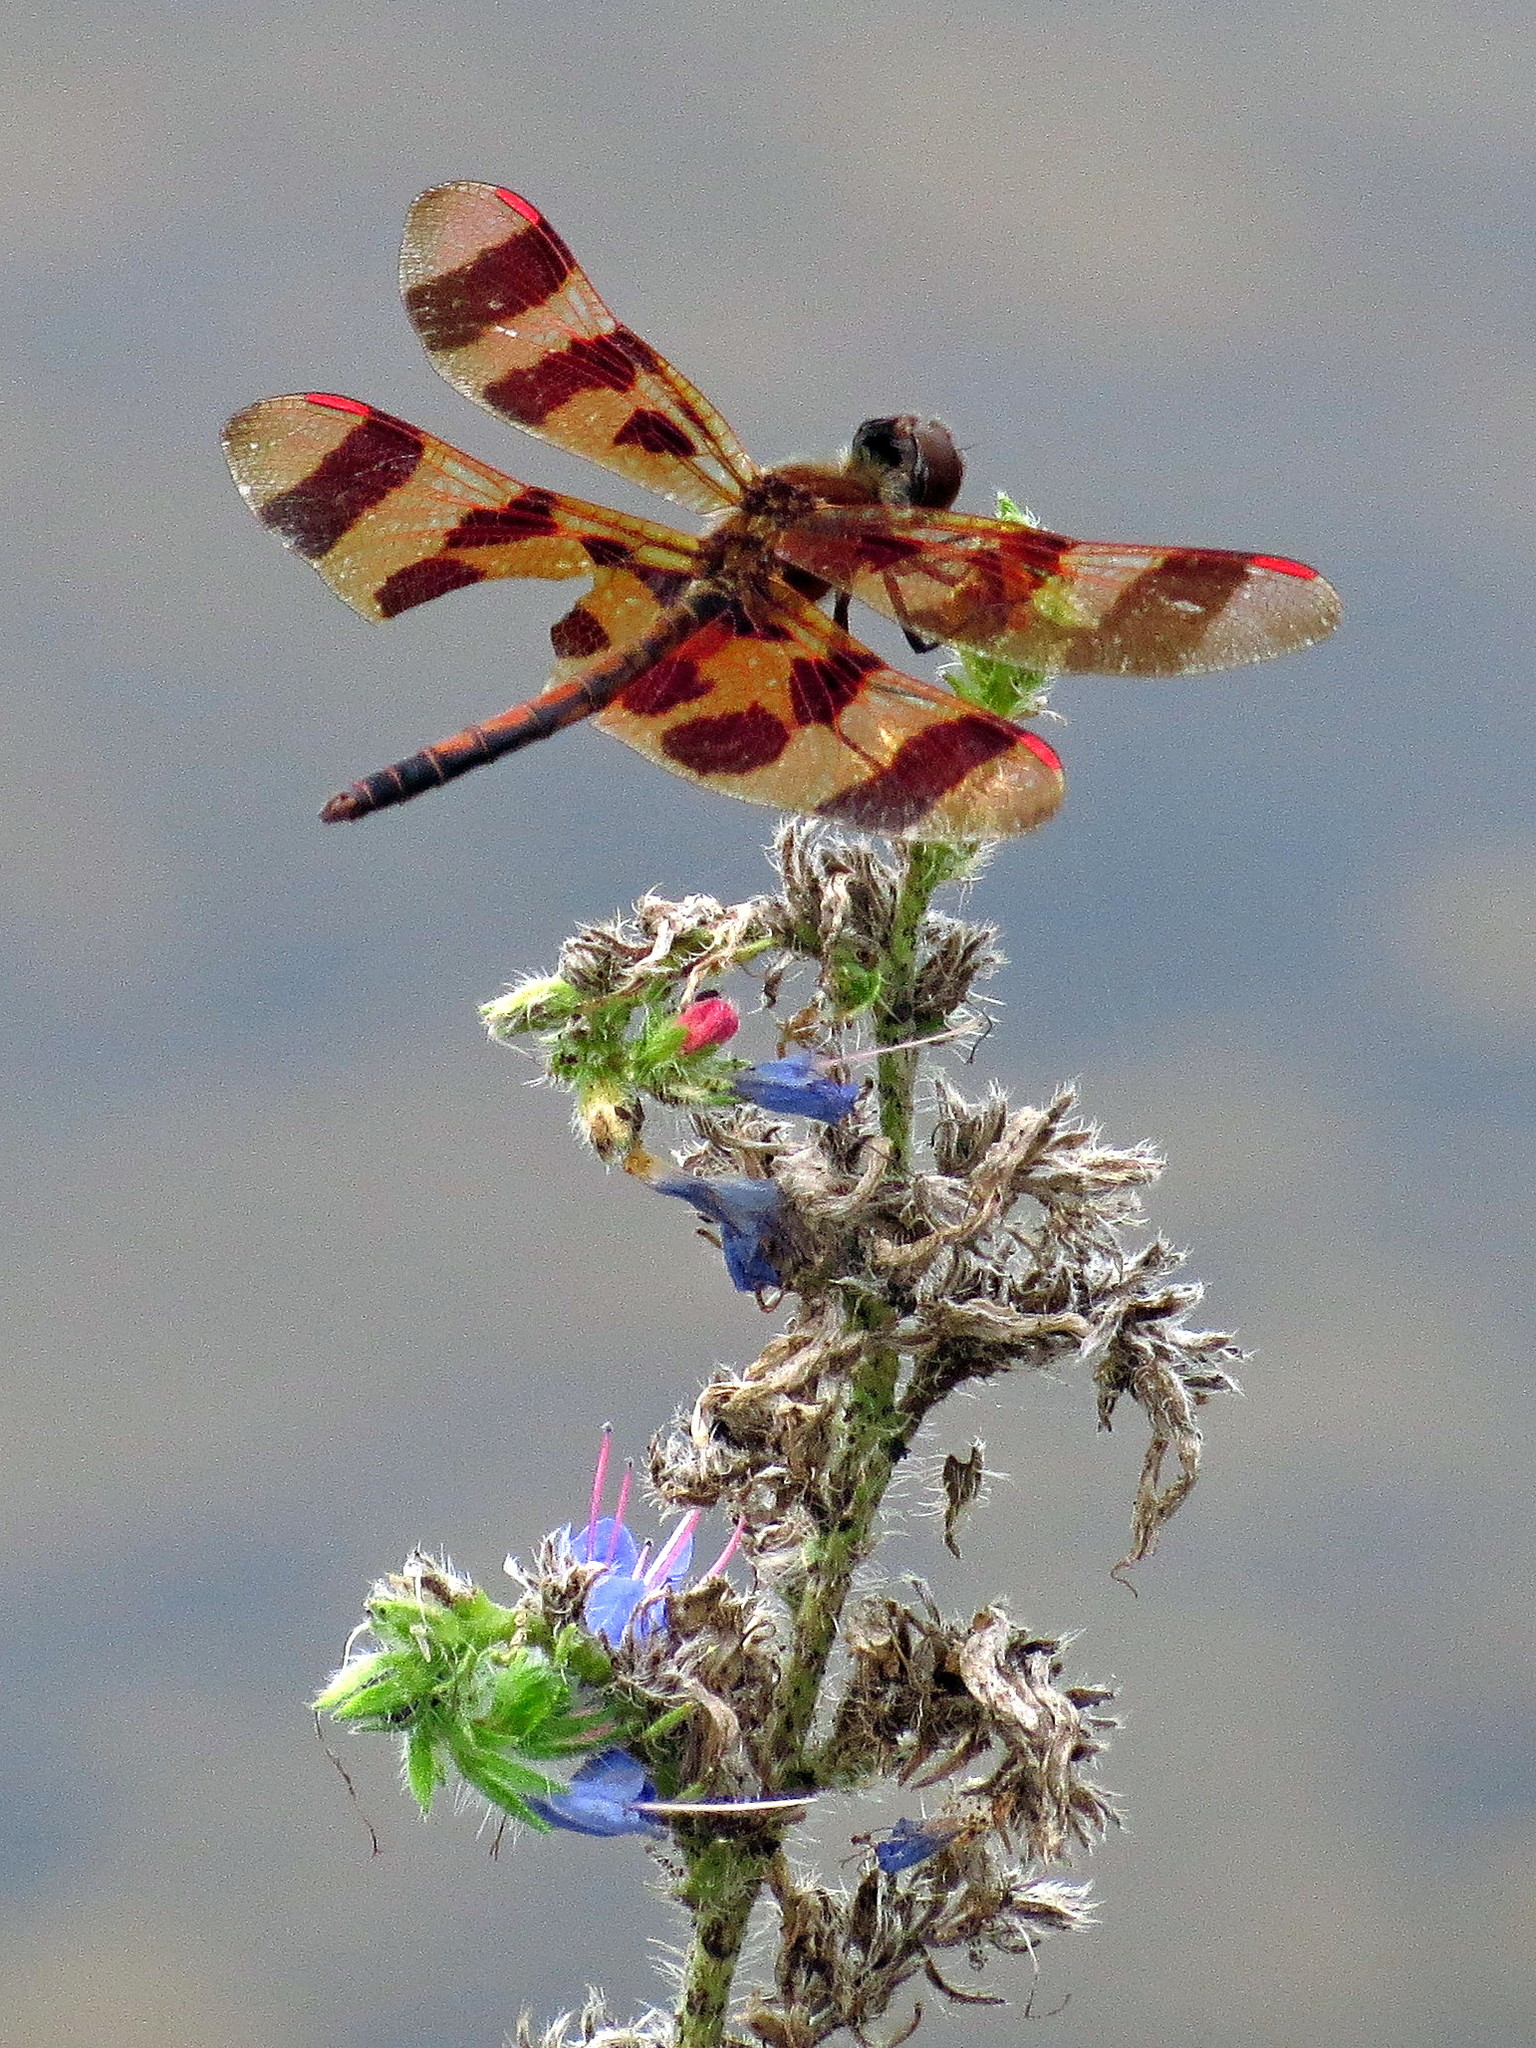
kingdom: Animalia
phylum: Arthropoda
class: Insecta
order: Odonata
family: Libellulidae
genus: Celithemis
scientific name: Celithemis eponina
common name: Halloween pennant
